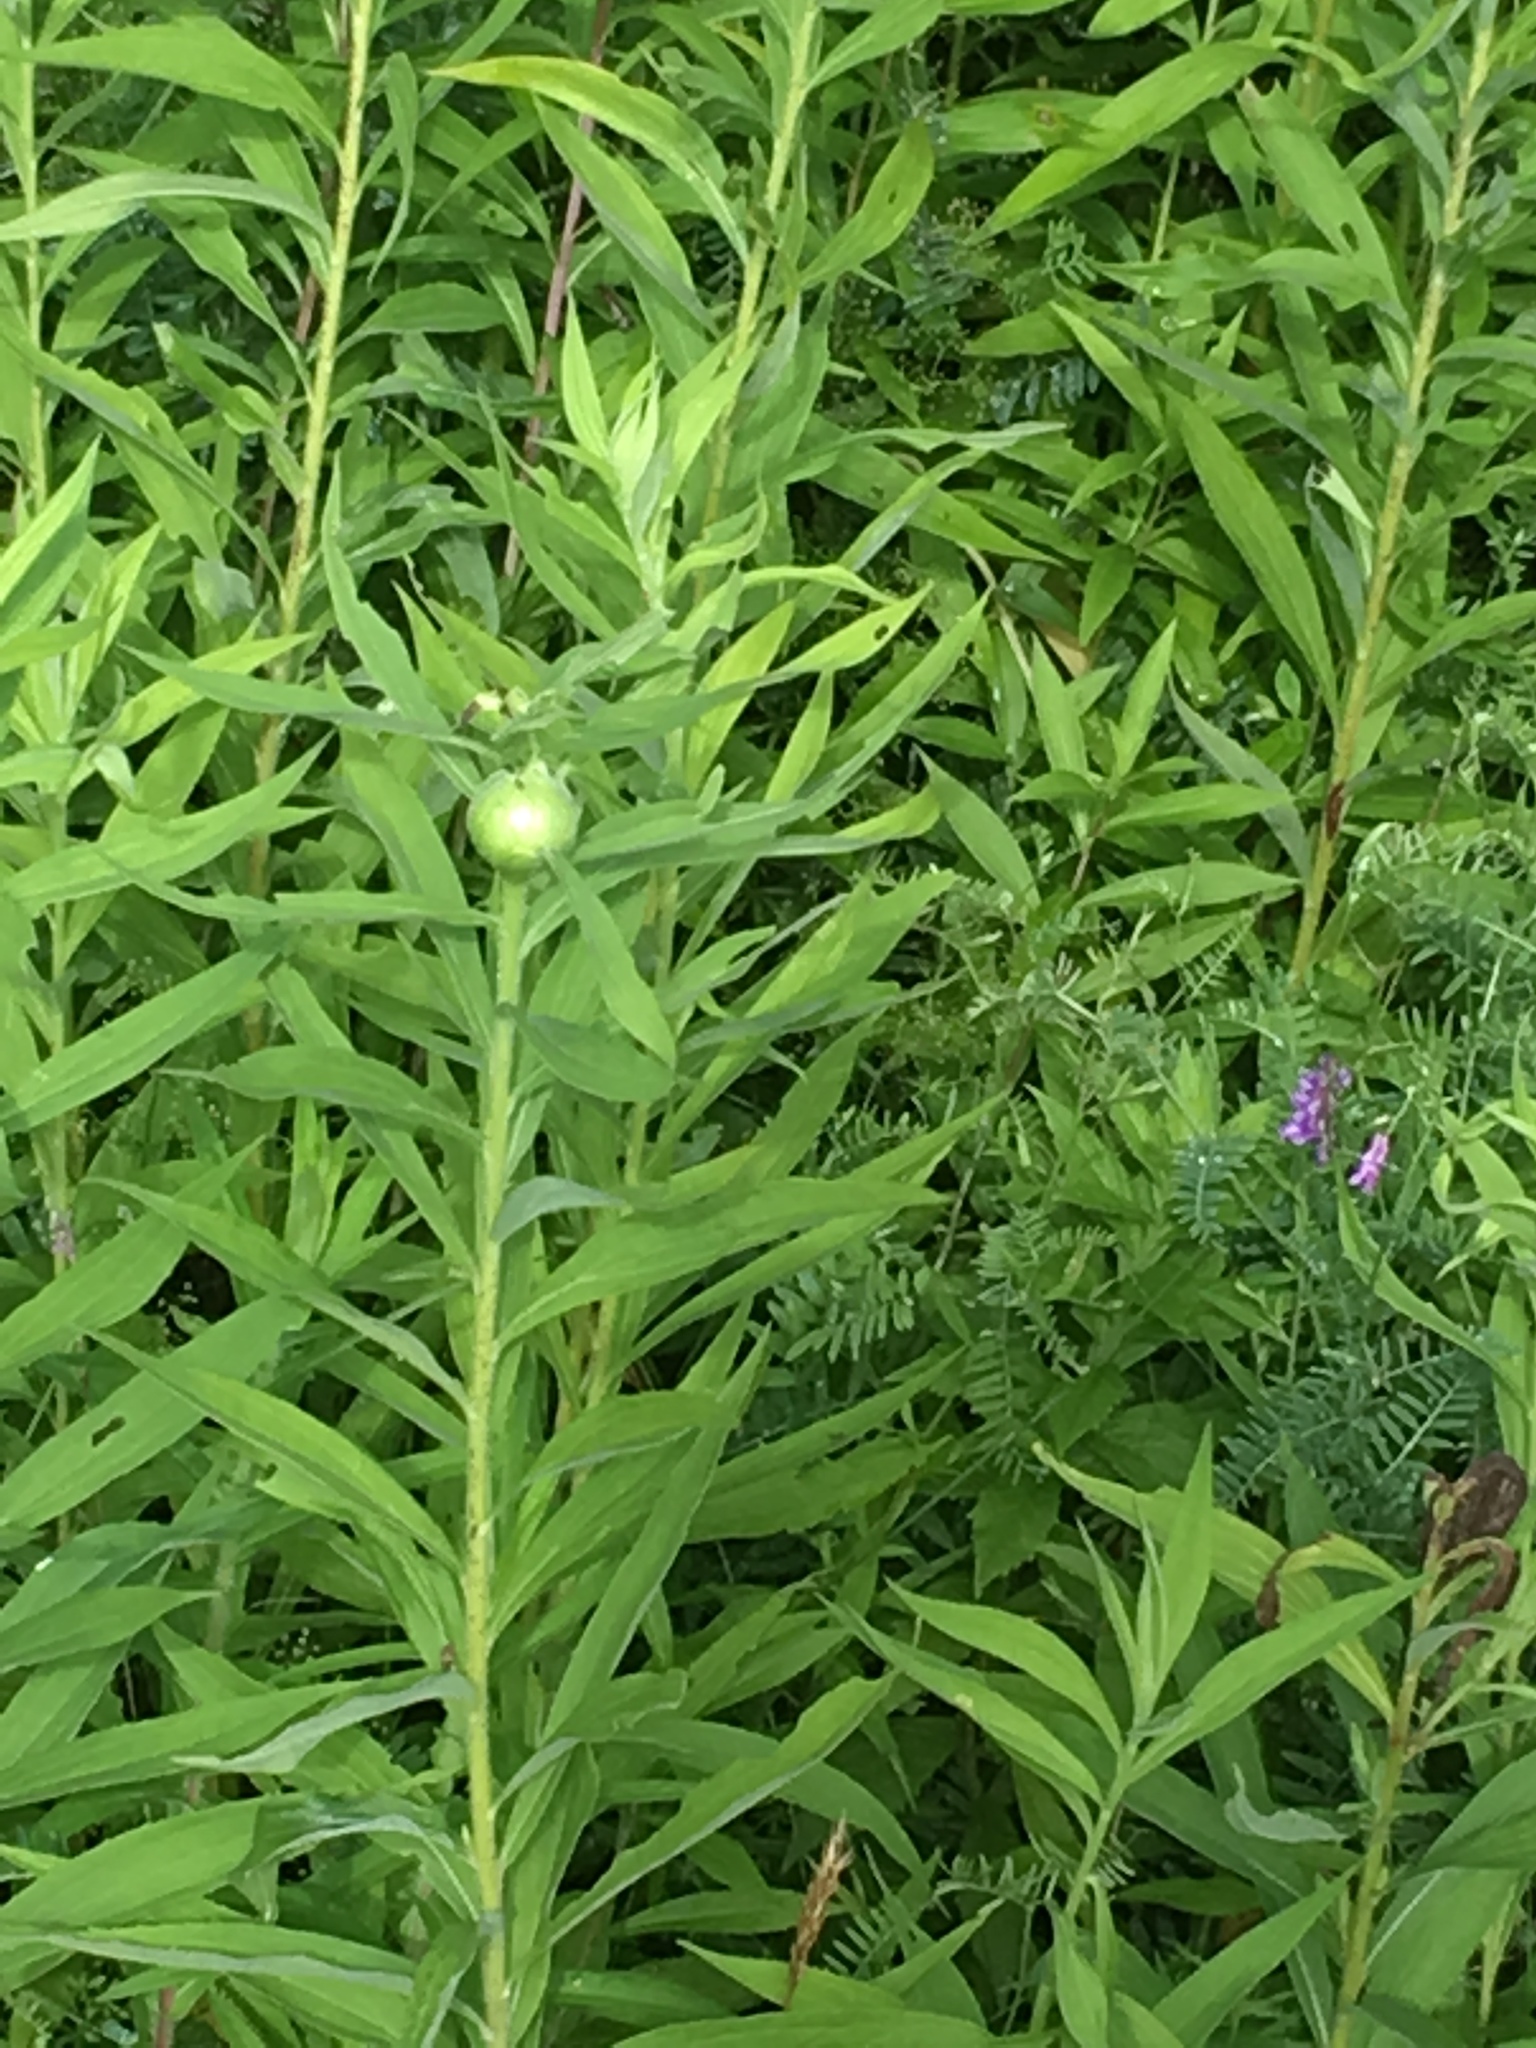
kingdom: Animalia
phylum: Arthropoda
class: Insecta
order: Diptera
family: Tephritidae
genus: Eurosta
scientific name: Eurosta solidaginis
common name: Goldenrod gall fly
